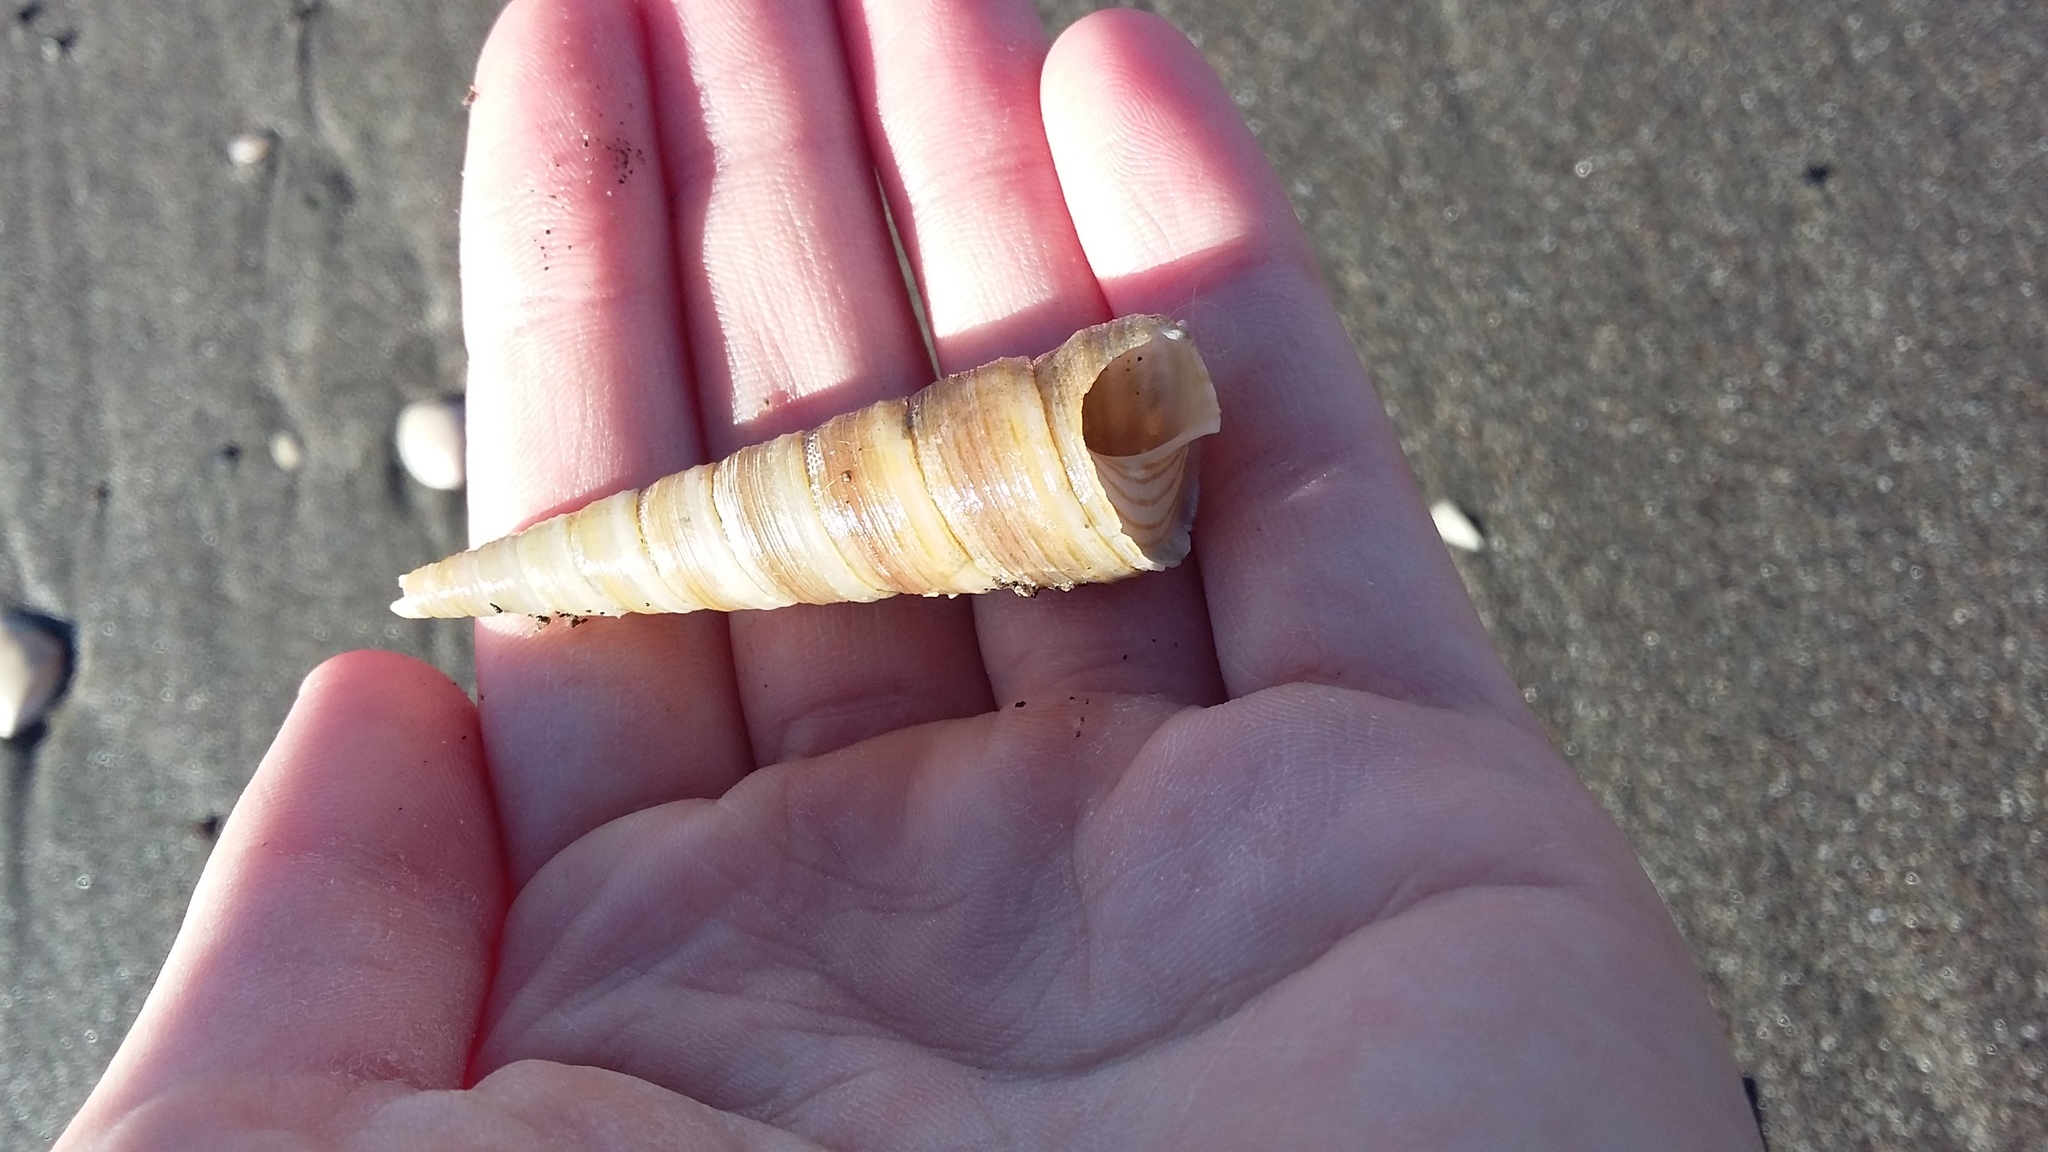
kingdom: Animalia
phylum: Mollusca
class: Gastropoda
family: Turritellidae
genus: Zeacolpus
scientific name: Zeacolpus vittatus
